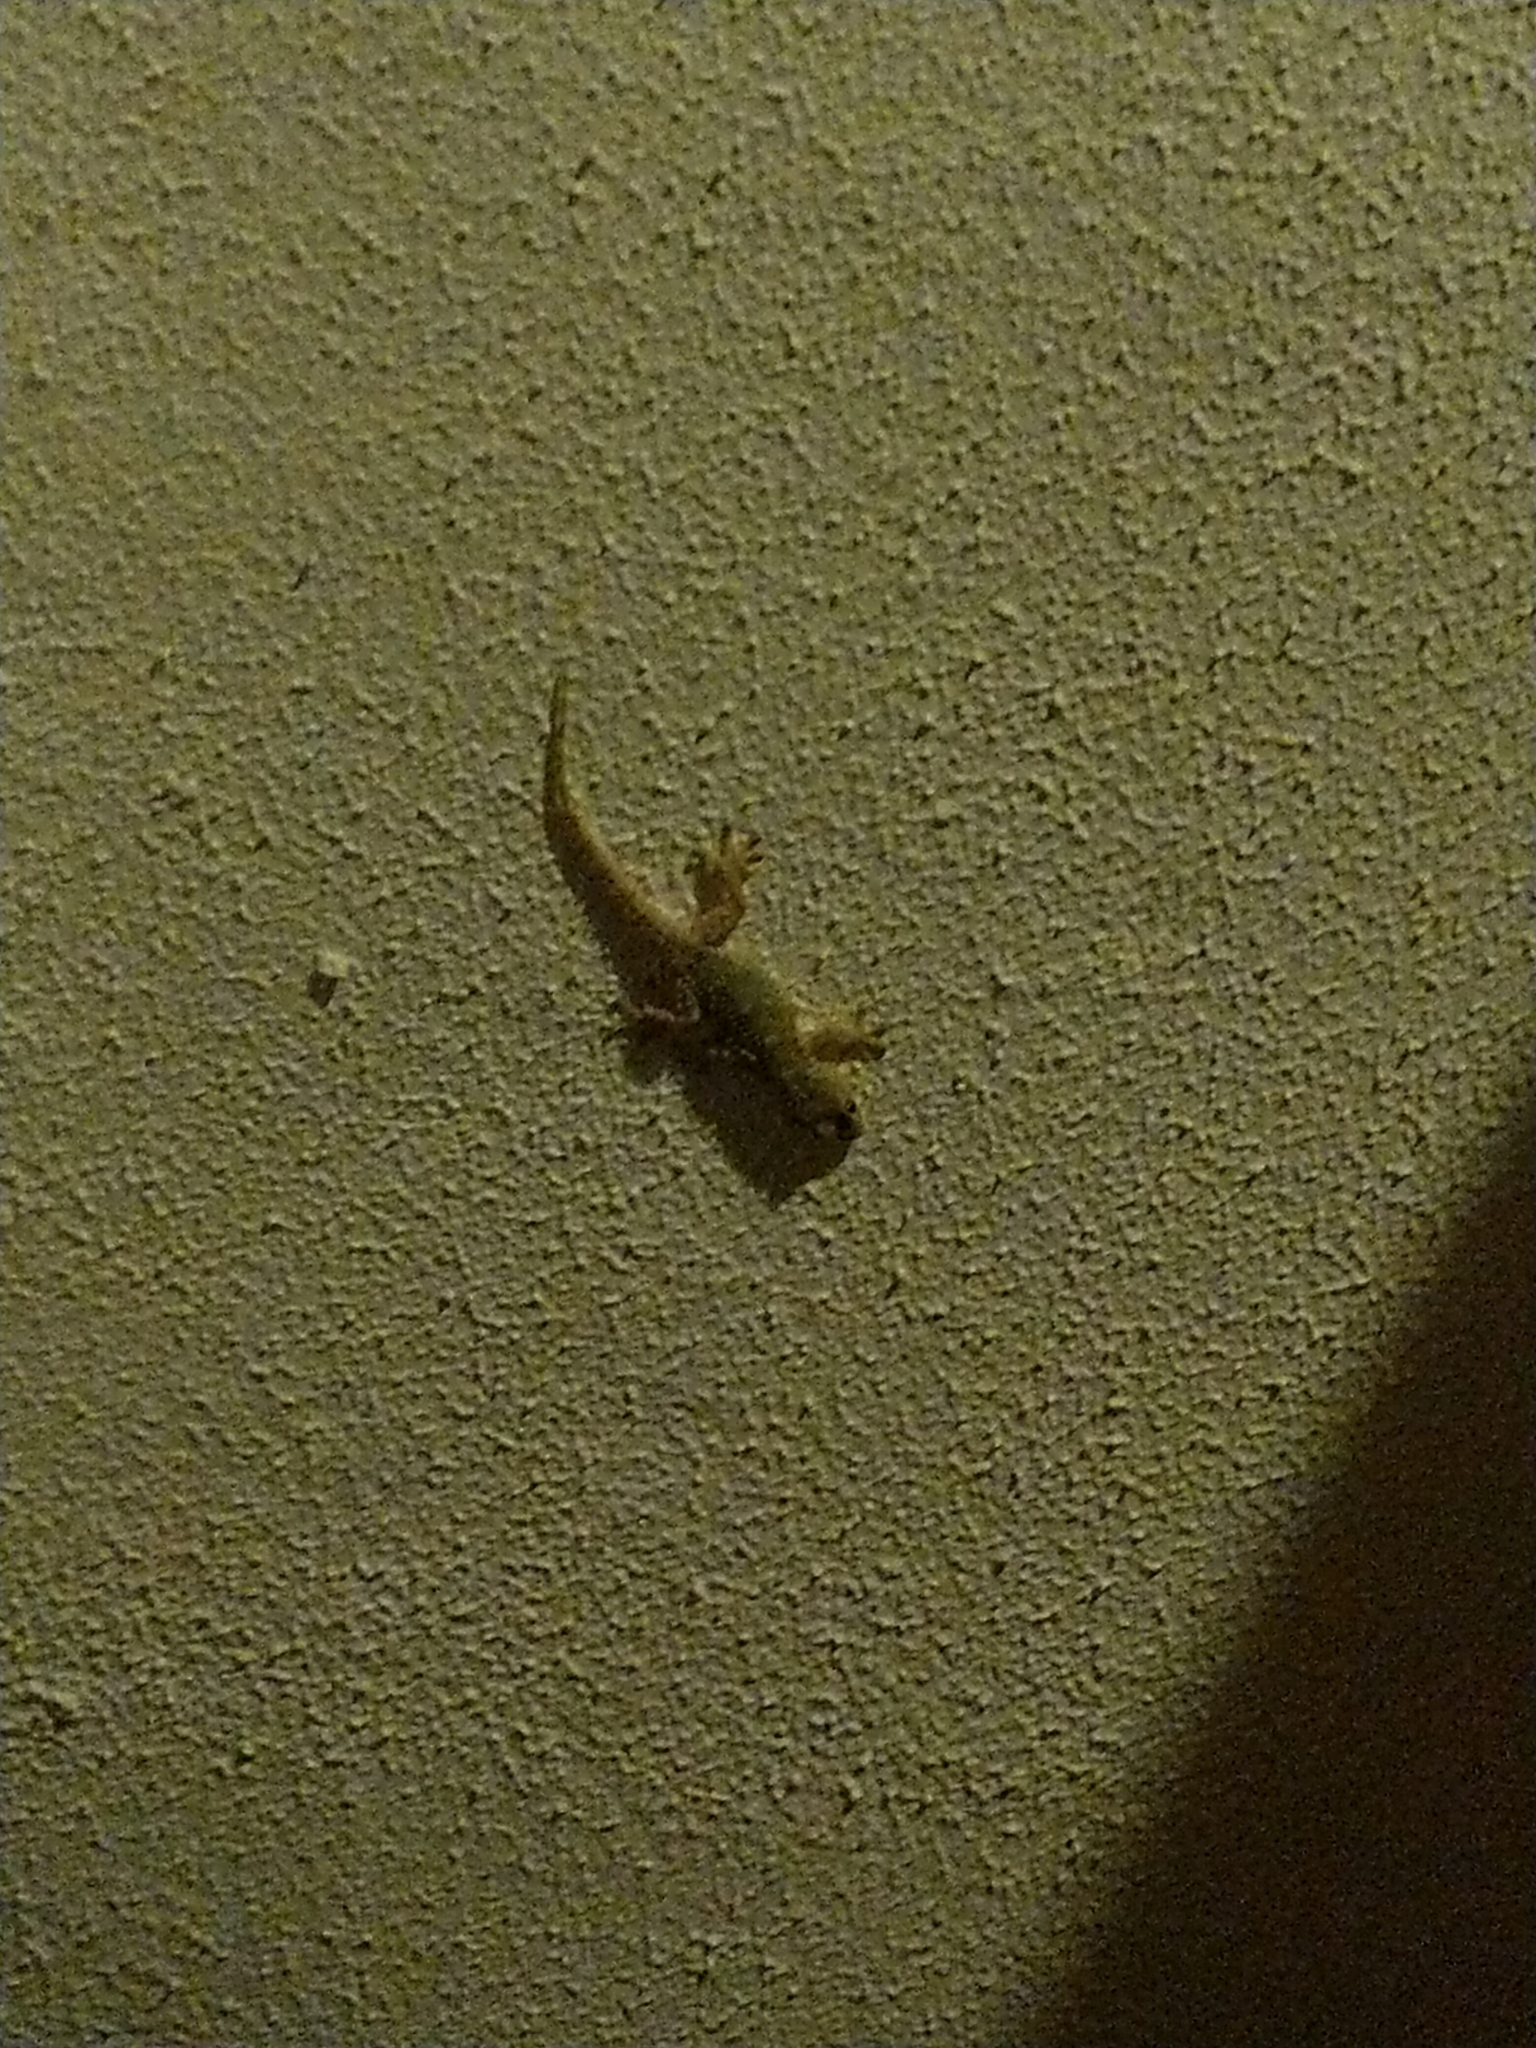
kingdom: Animalia
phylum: Chordata
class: Squamata
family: Phyllodactylidae
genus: Tarentola
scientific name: Tarentola mauritanica
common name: Moorish gecko
